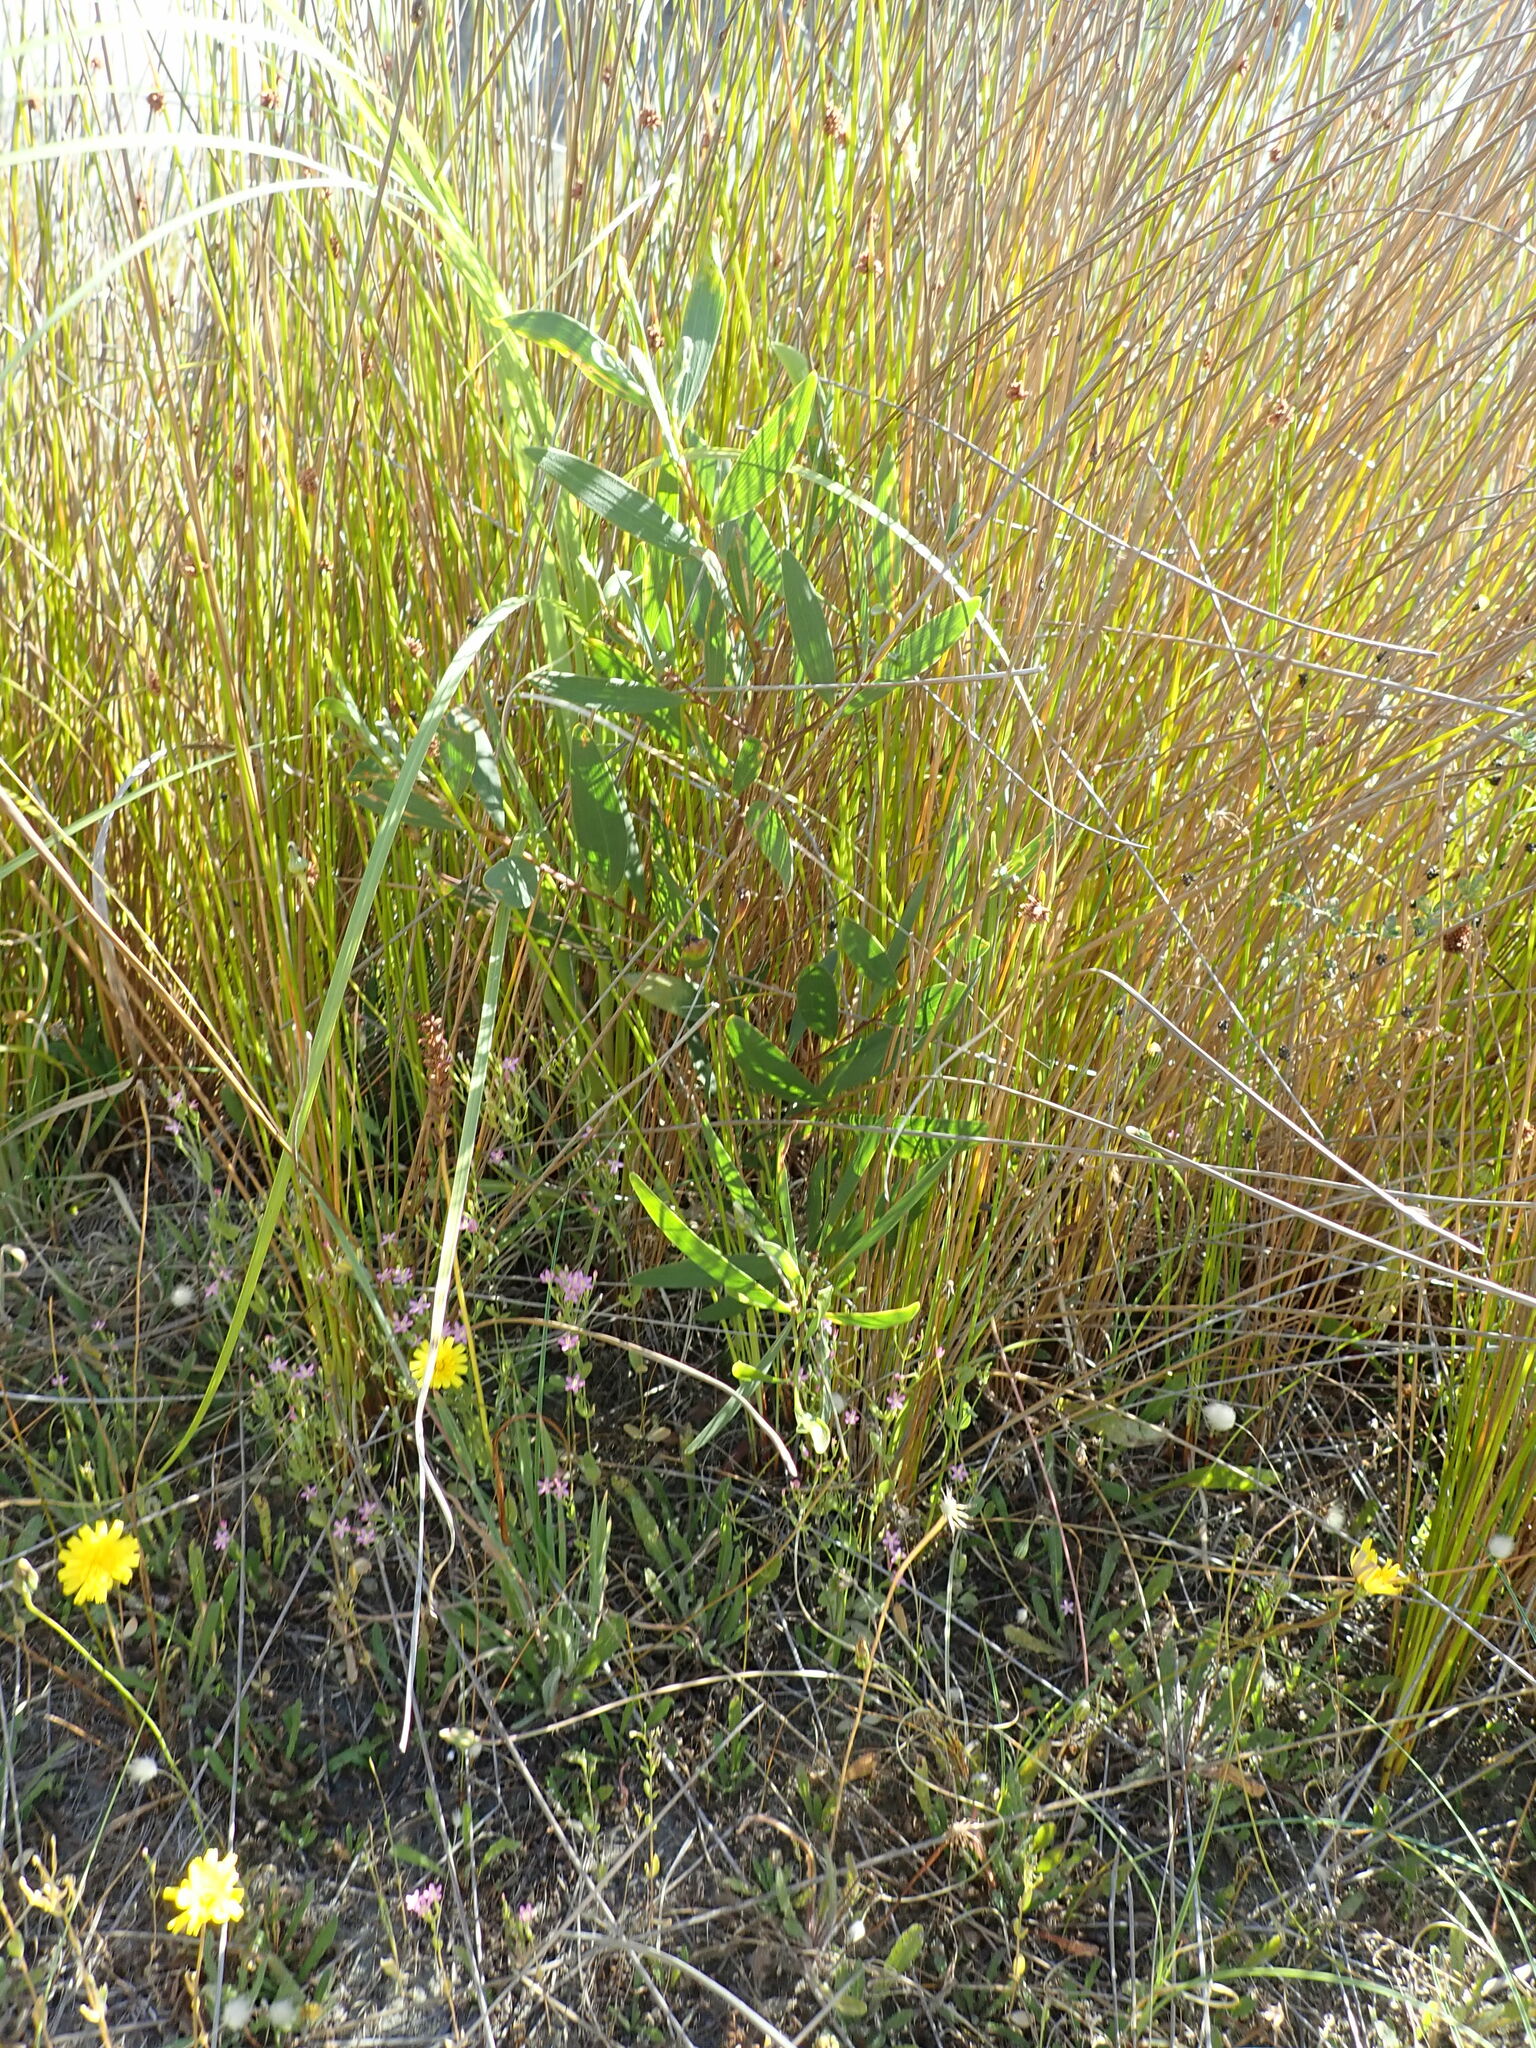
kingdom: Plantae
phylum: Tracheophyta
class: Magnoliopsida
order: Fabales
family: Fabaceae
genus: Acacia
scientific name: Acacia longifolia
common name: Sydney golden wattle
